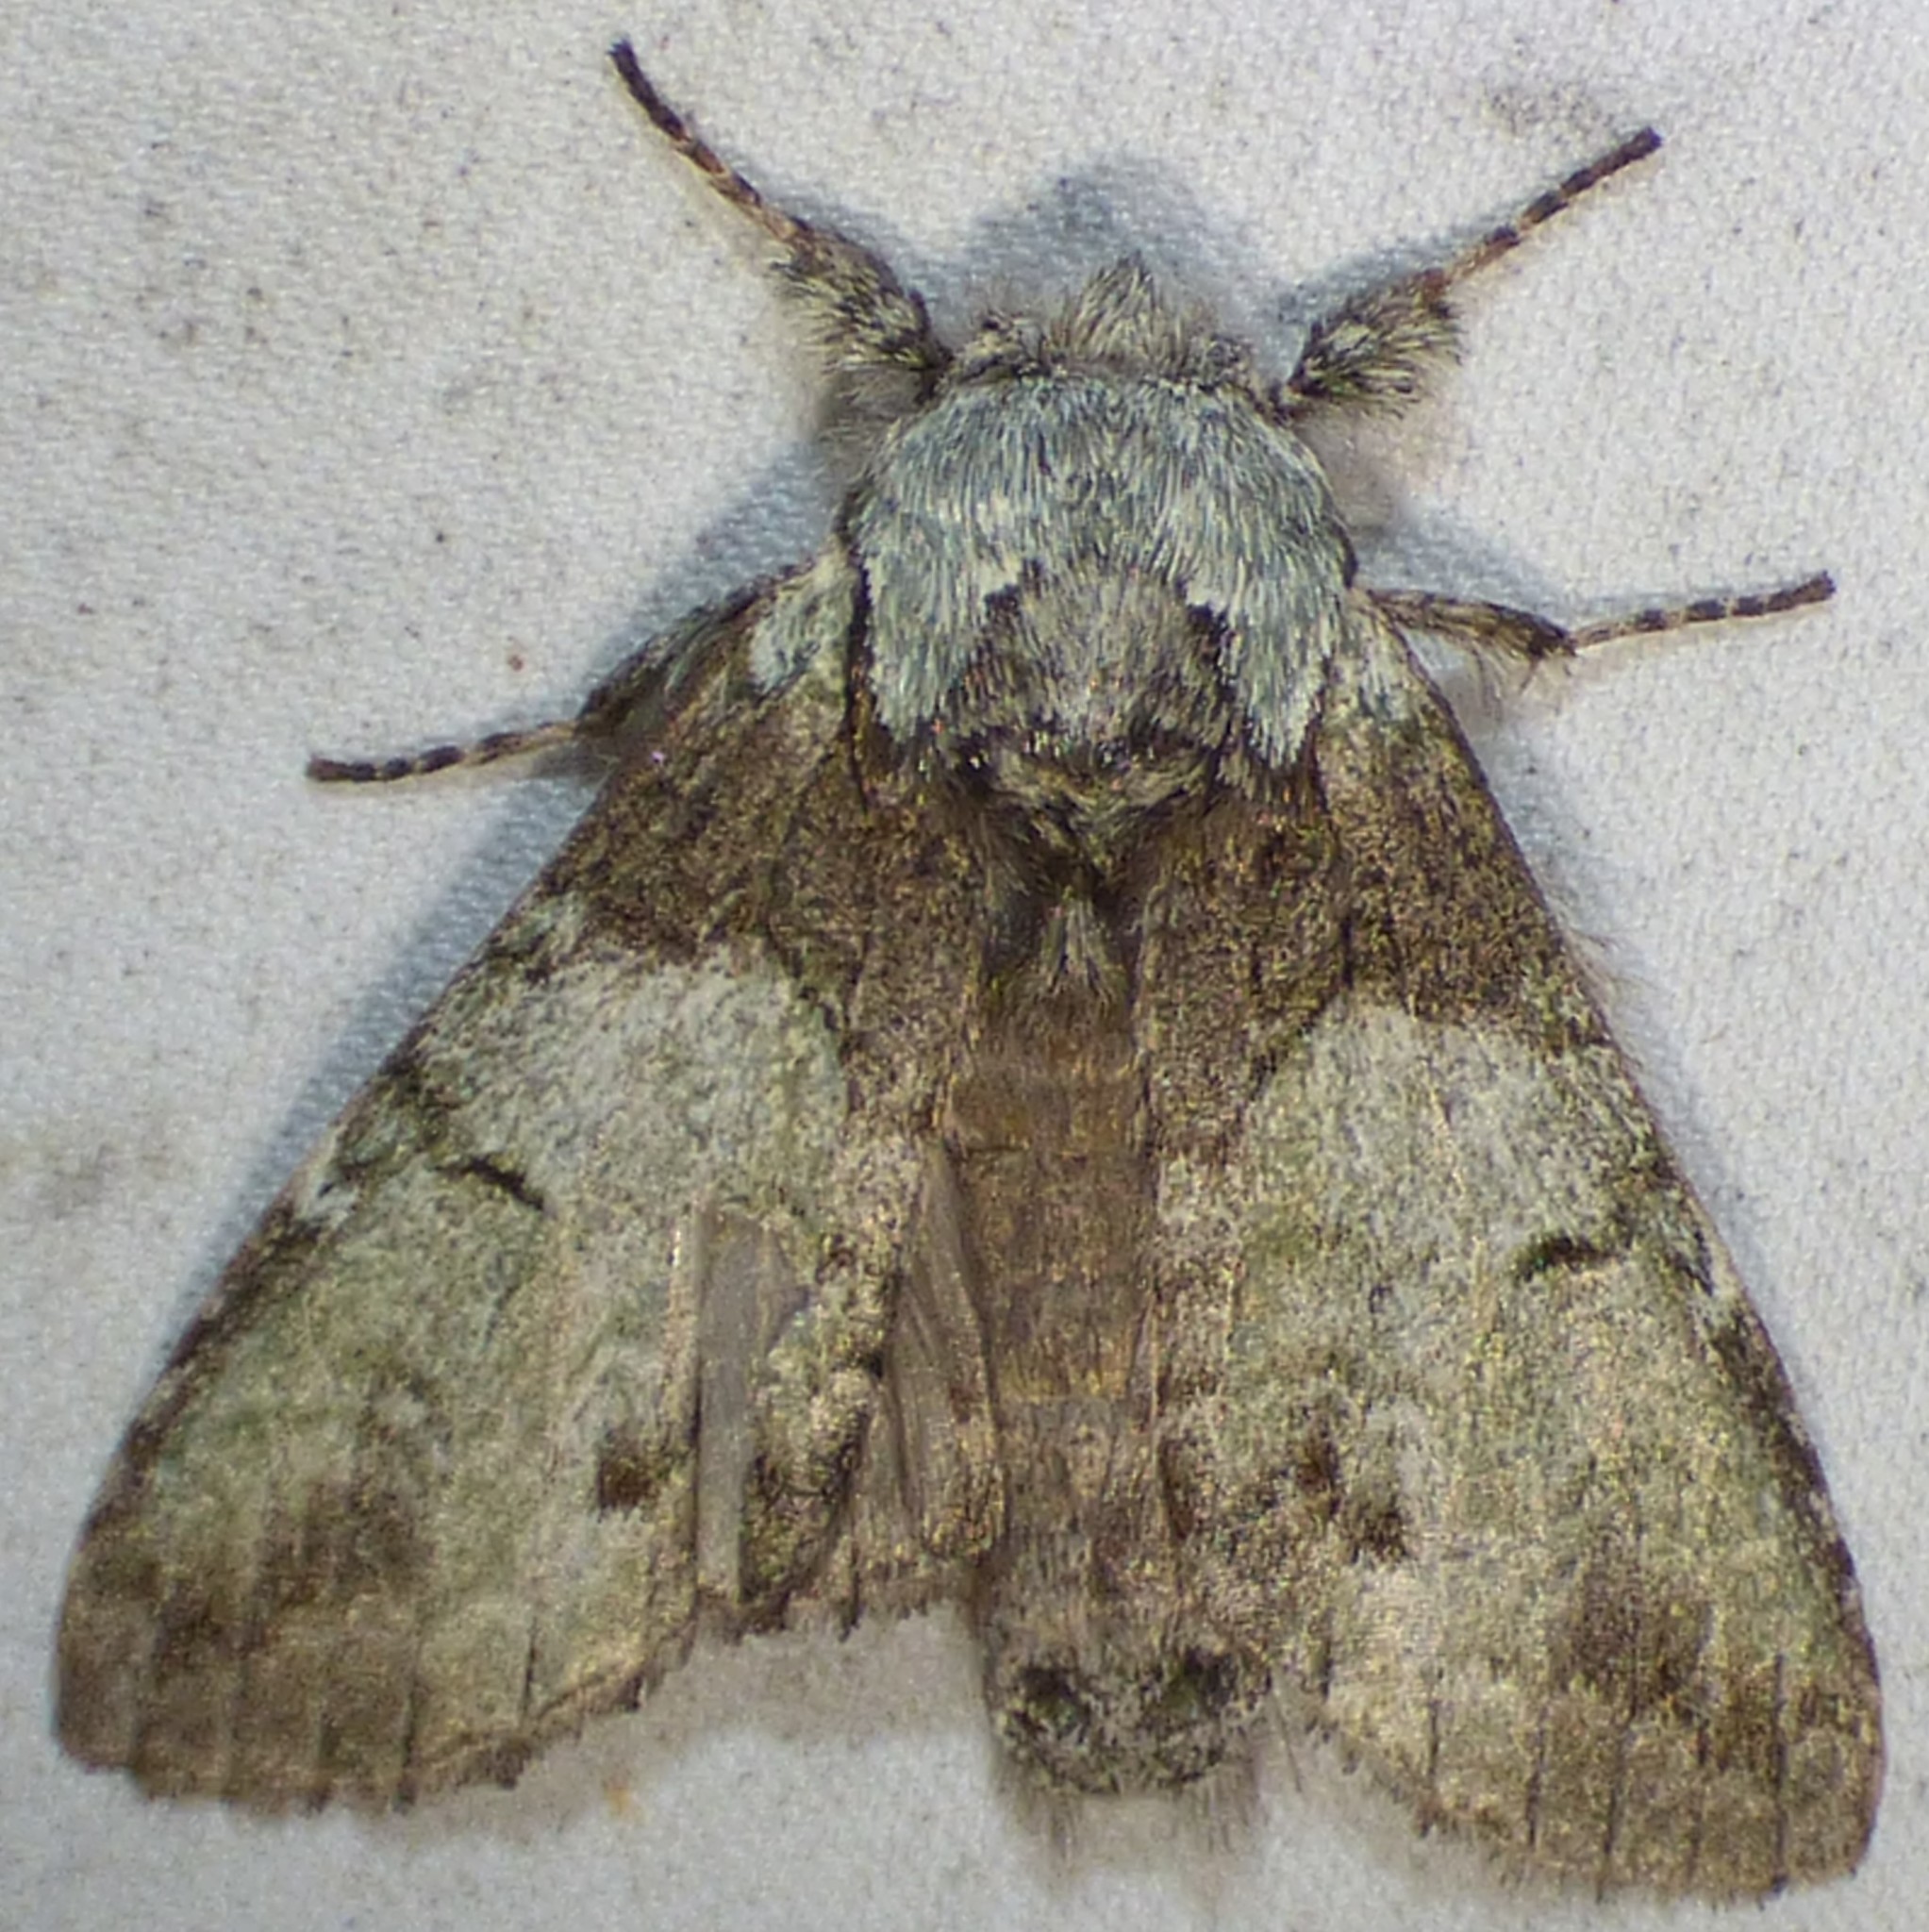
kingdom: Animalia
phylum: Arthropoda
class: Insecta
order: Lepidoptera
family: Notodontidae
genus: Macrurocampa
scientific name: Macrurocampa marthesia
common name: Mottled prominent
